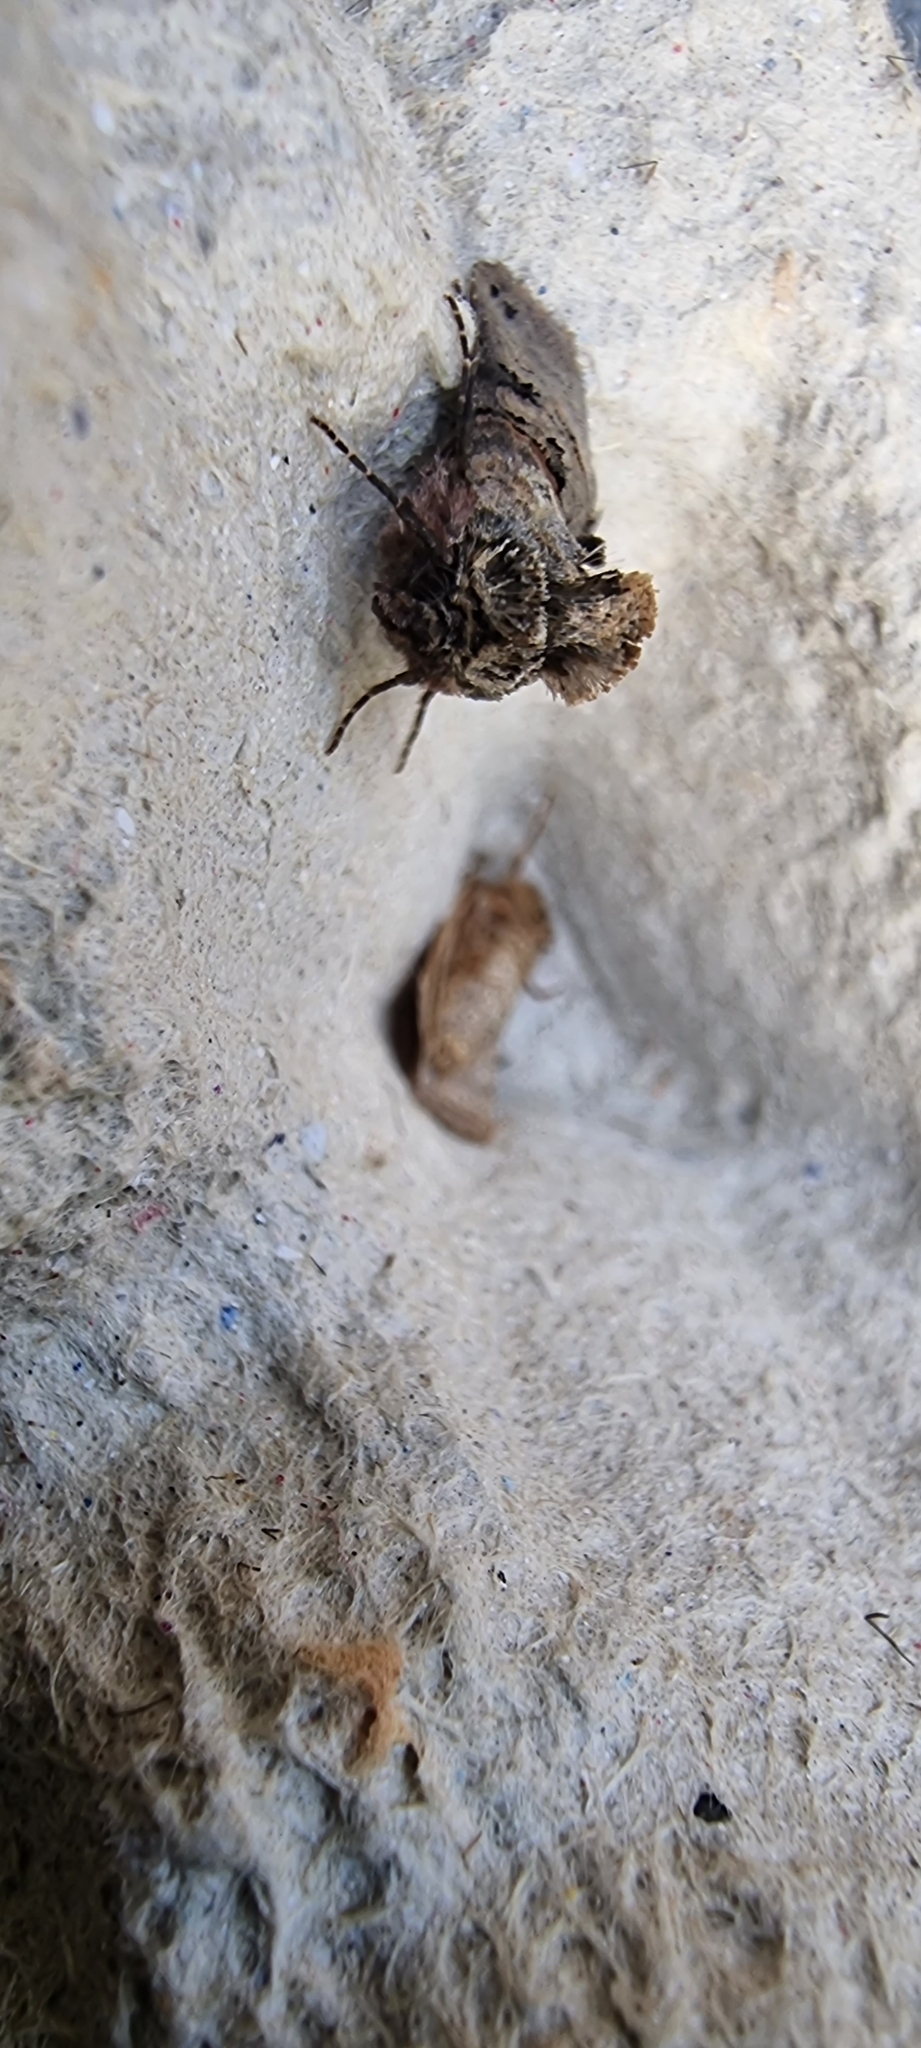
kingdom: Animalia
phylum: Arthropoda
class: Insecta
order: Lepidoptera
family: Noctuidae
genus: Abrostola
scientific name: Abrostola tripartita
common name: Spectacle
